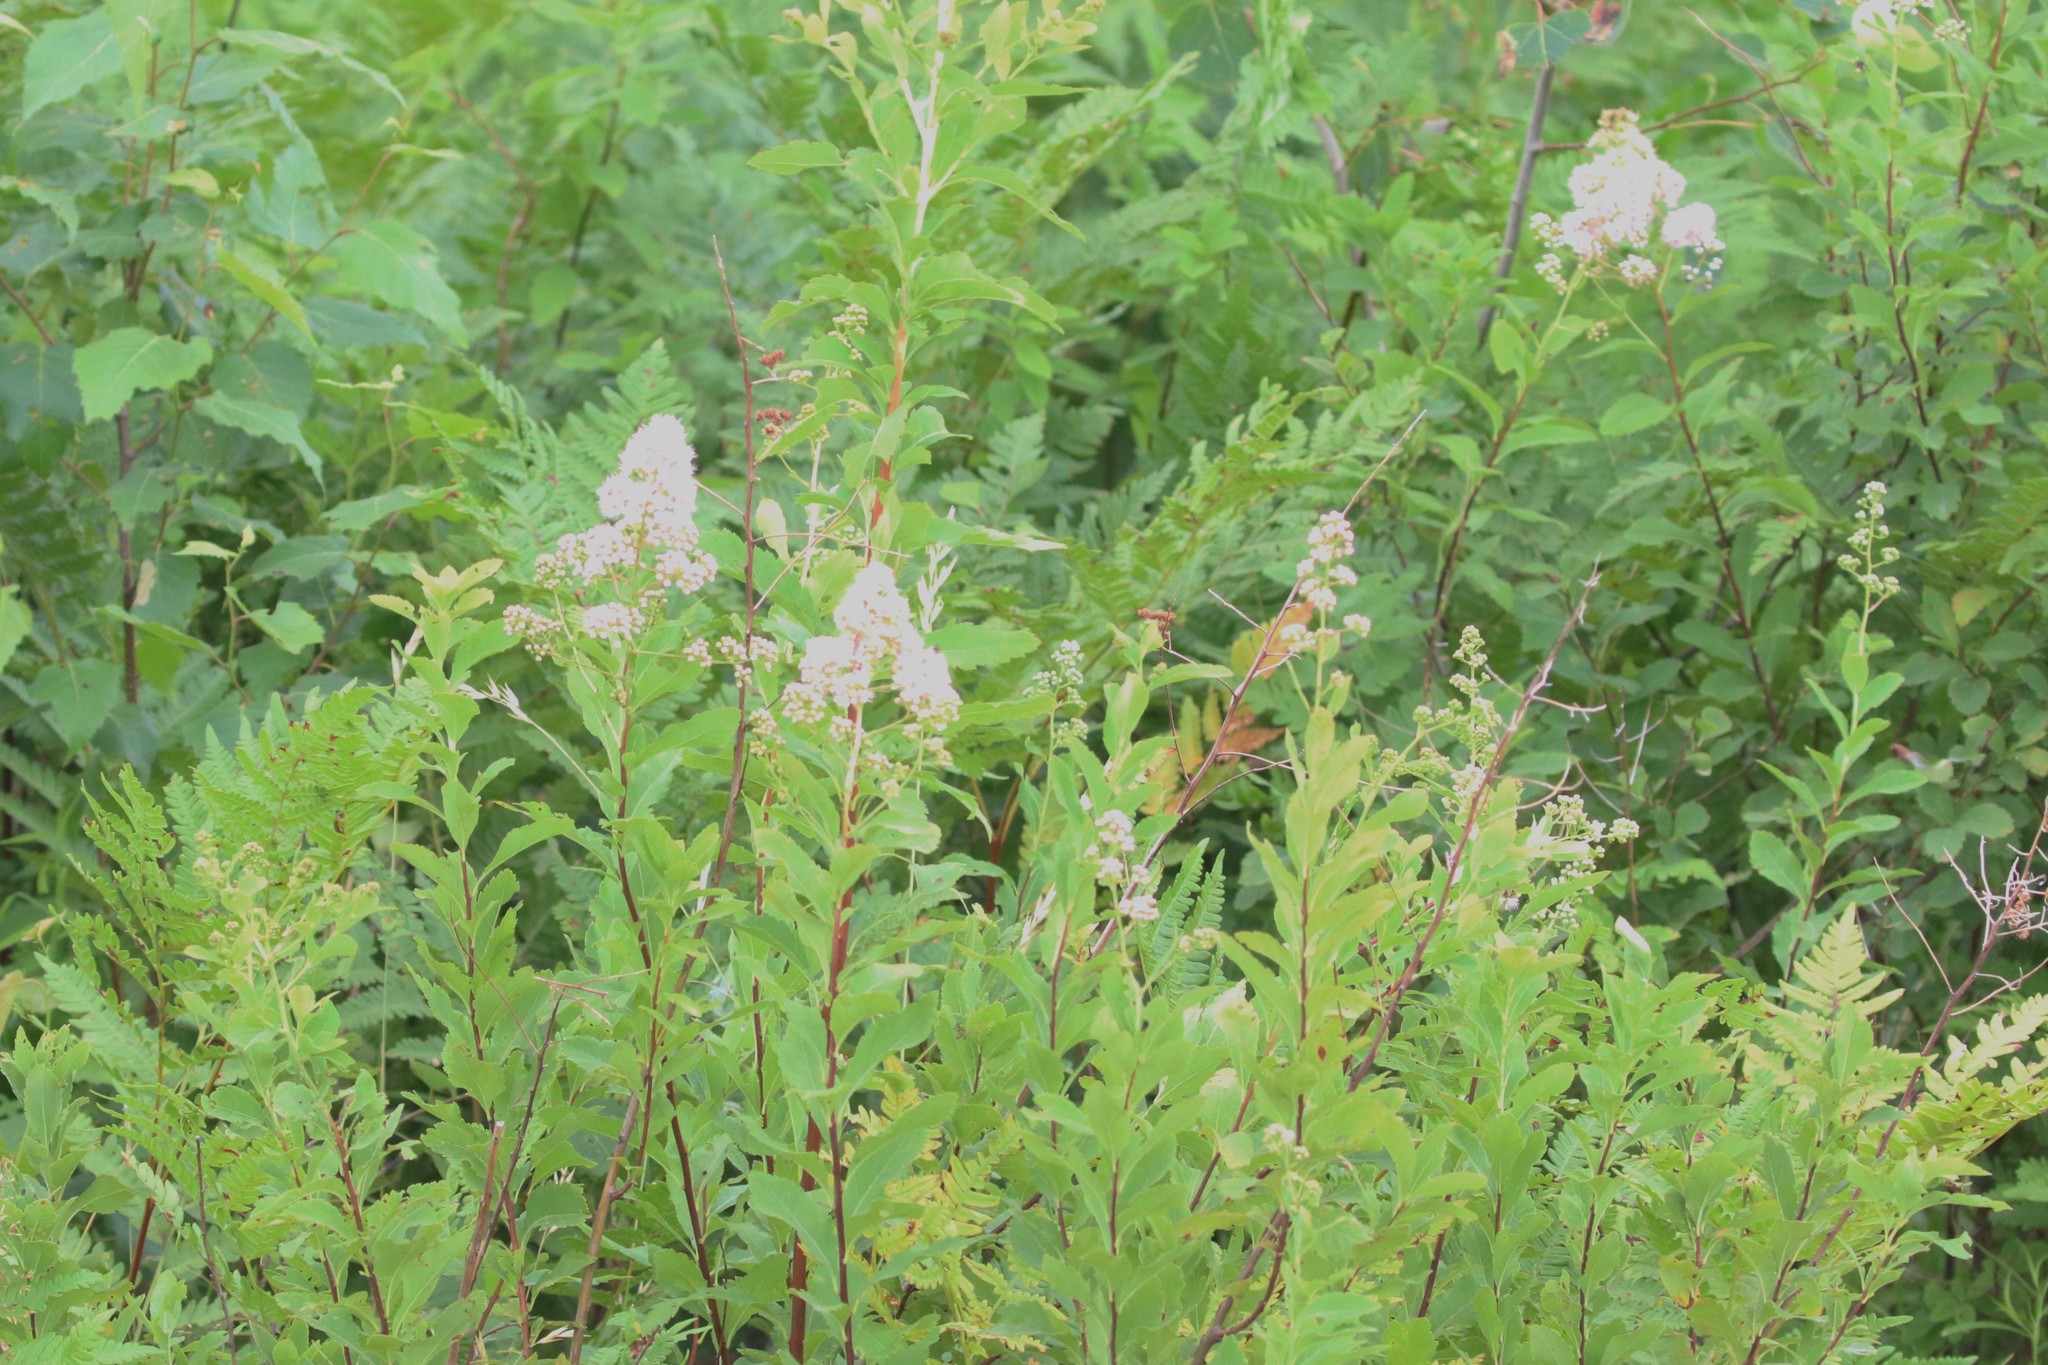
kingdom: Plantae
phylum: Tracheophyta
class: Magnoliopsida
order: Rosales
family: Rosaceae
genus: Spiraea
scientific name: Spiraea alba
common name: Pale bridewort
